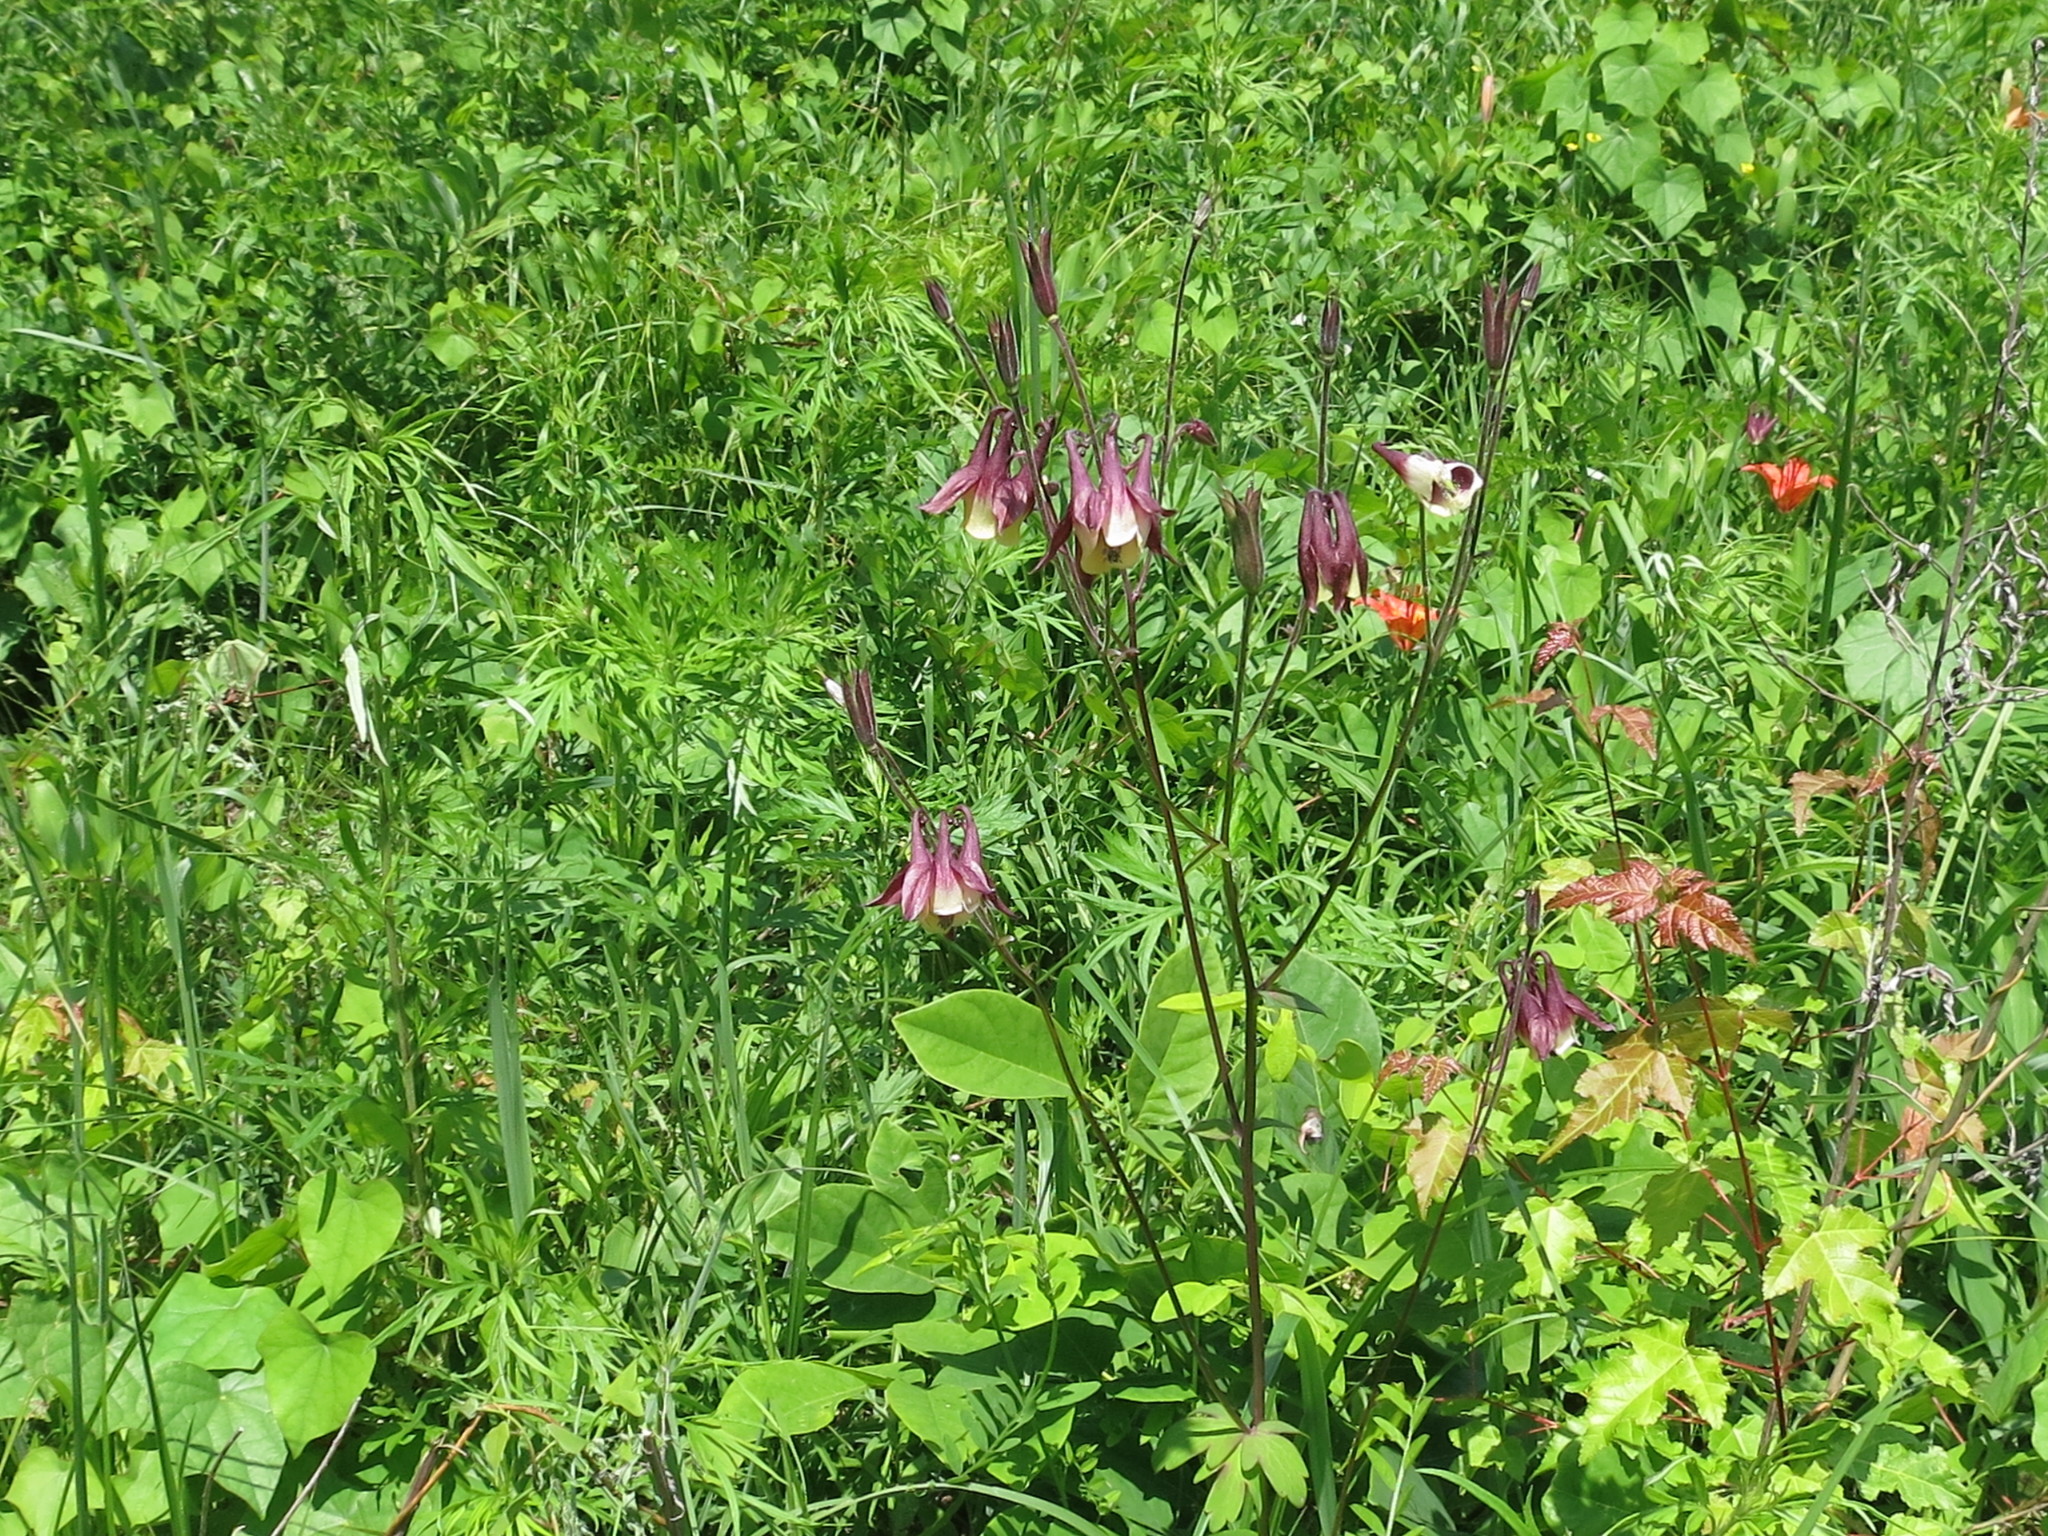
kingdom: Plantae
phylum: Tracheophyta
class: Magnoliopsida
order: Ranunculales
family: Ranunculaceae
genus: Aquilegia
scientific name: Aquilegia oxysepala
